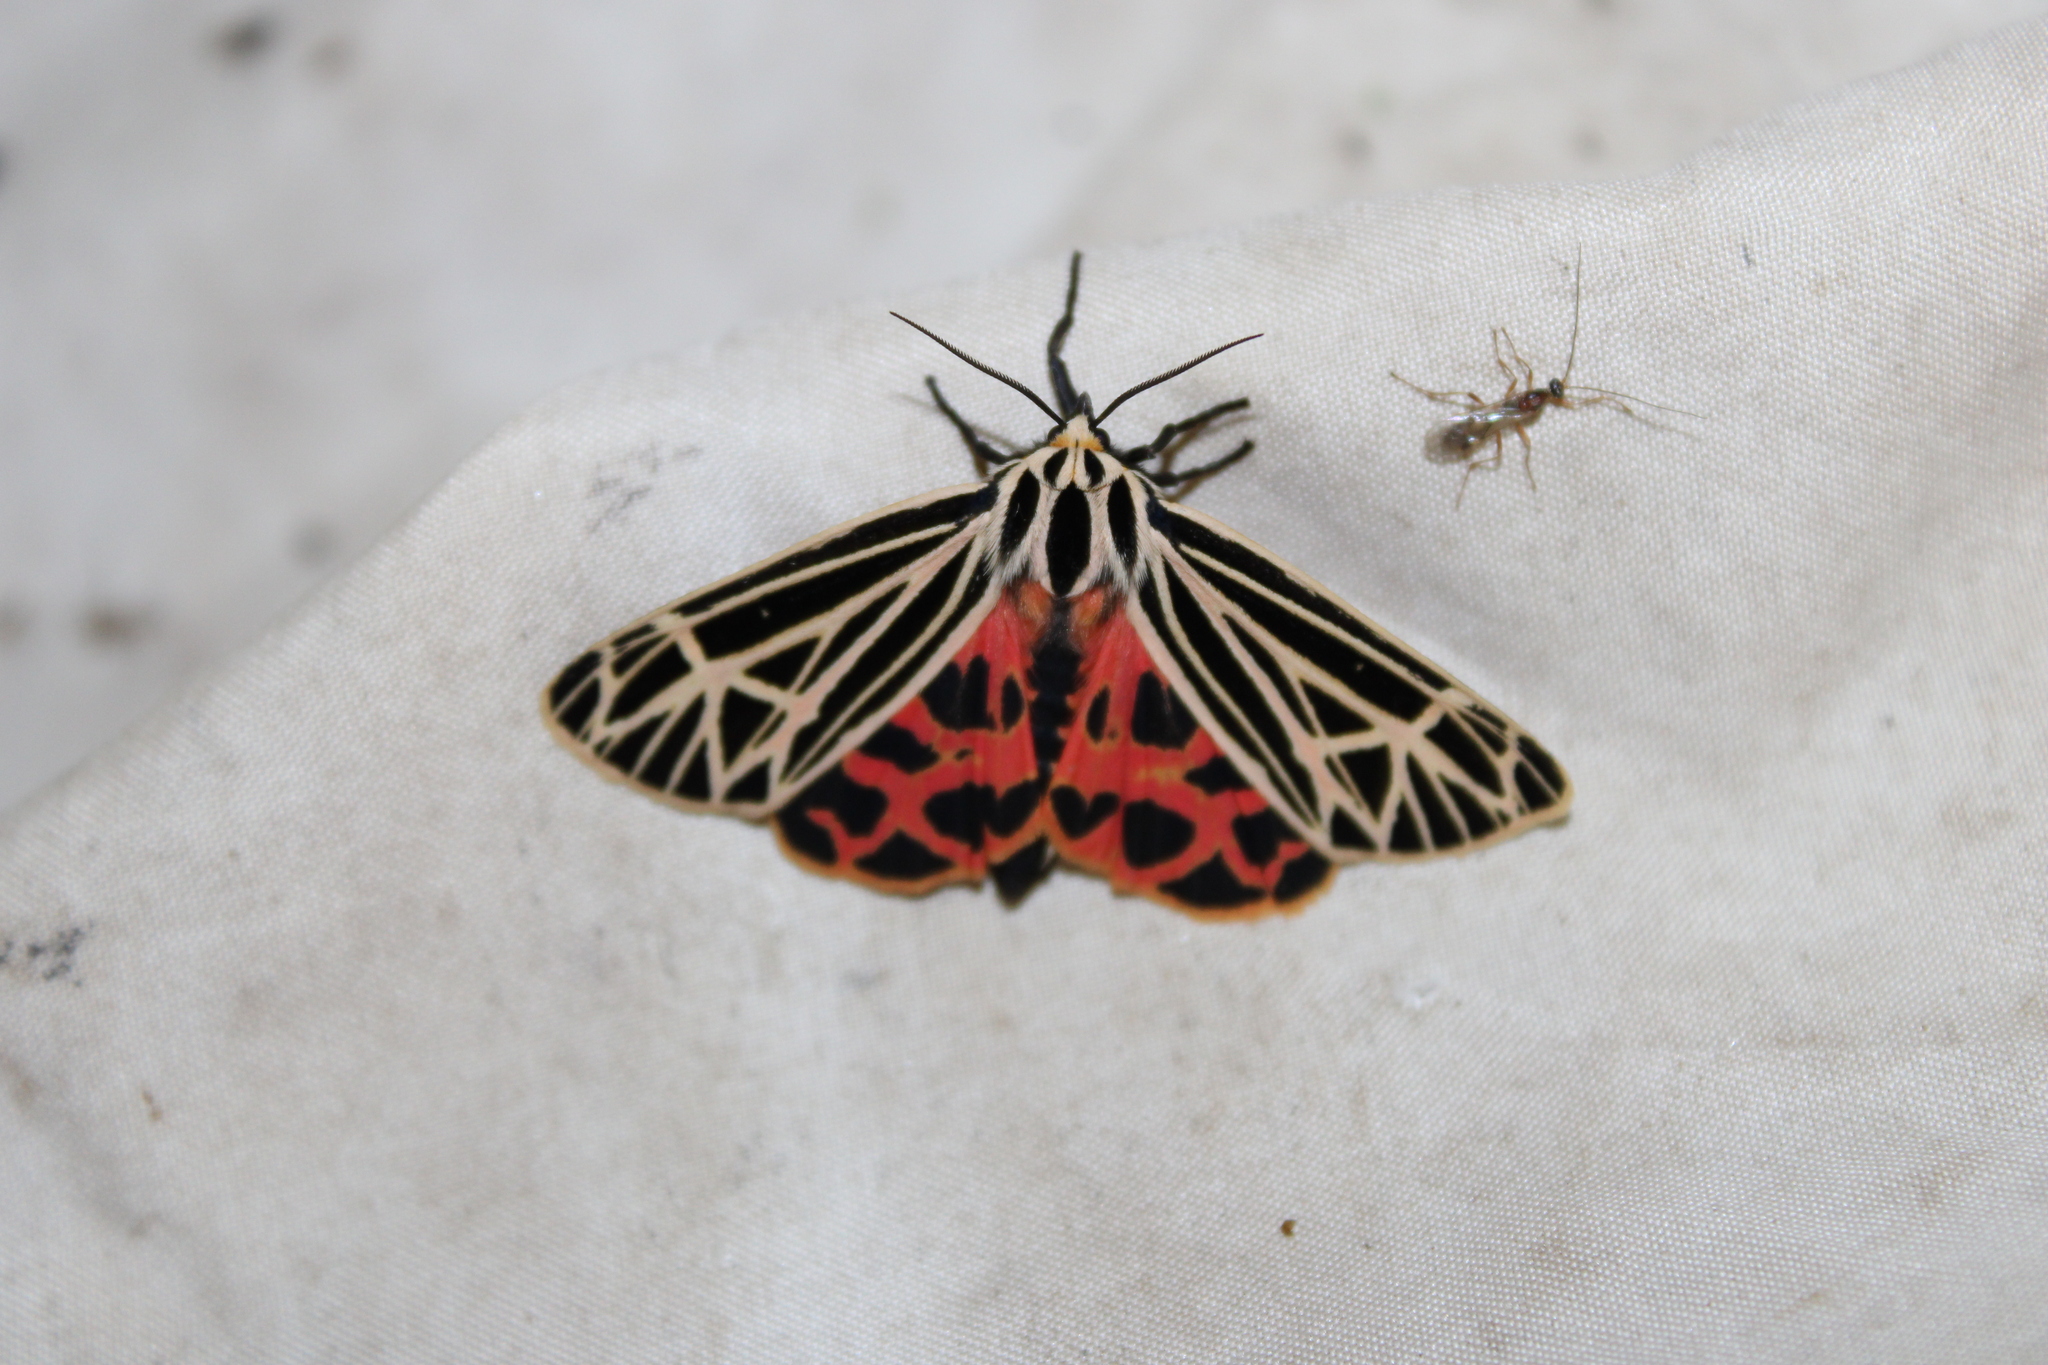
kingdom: Animalia
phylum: Arthropoda
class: Insecta
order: Lepidoptera
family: Erebidae
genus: Grammia
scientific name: Grammia virgo
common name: Virgin tiger moth
